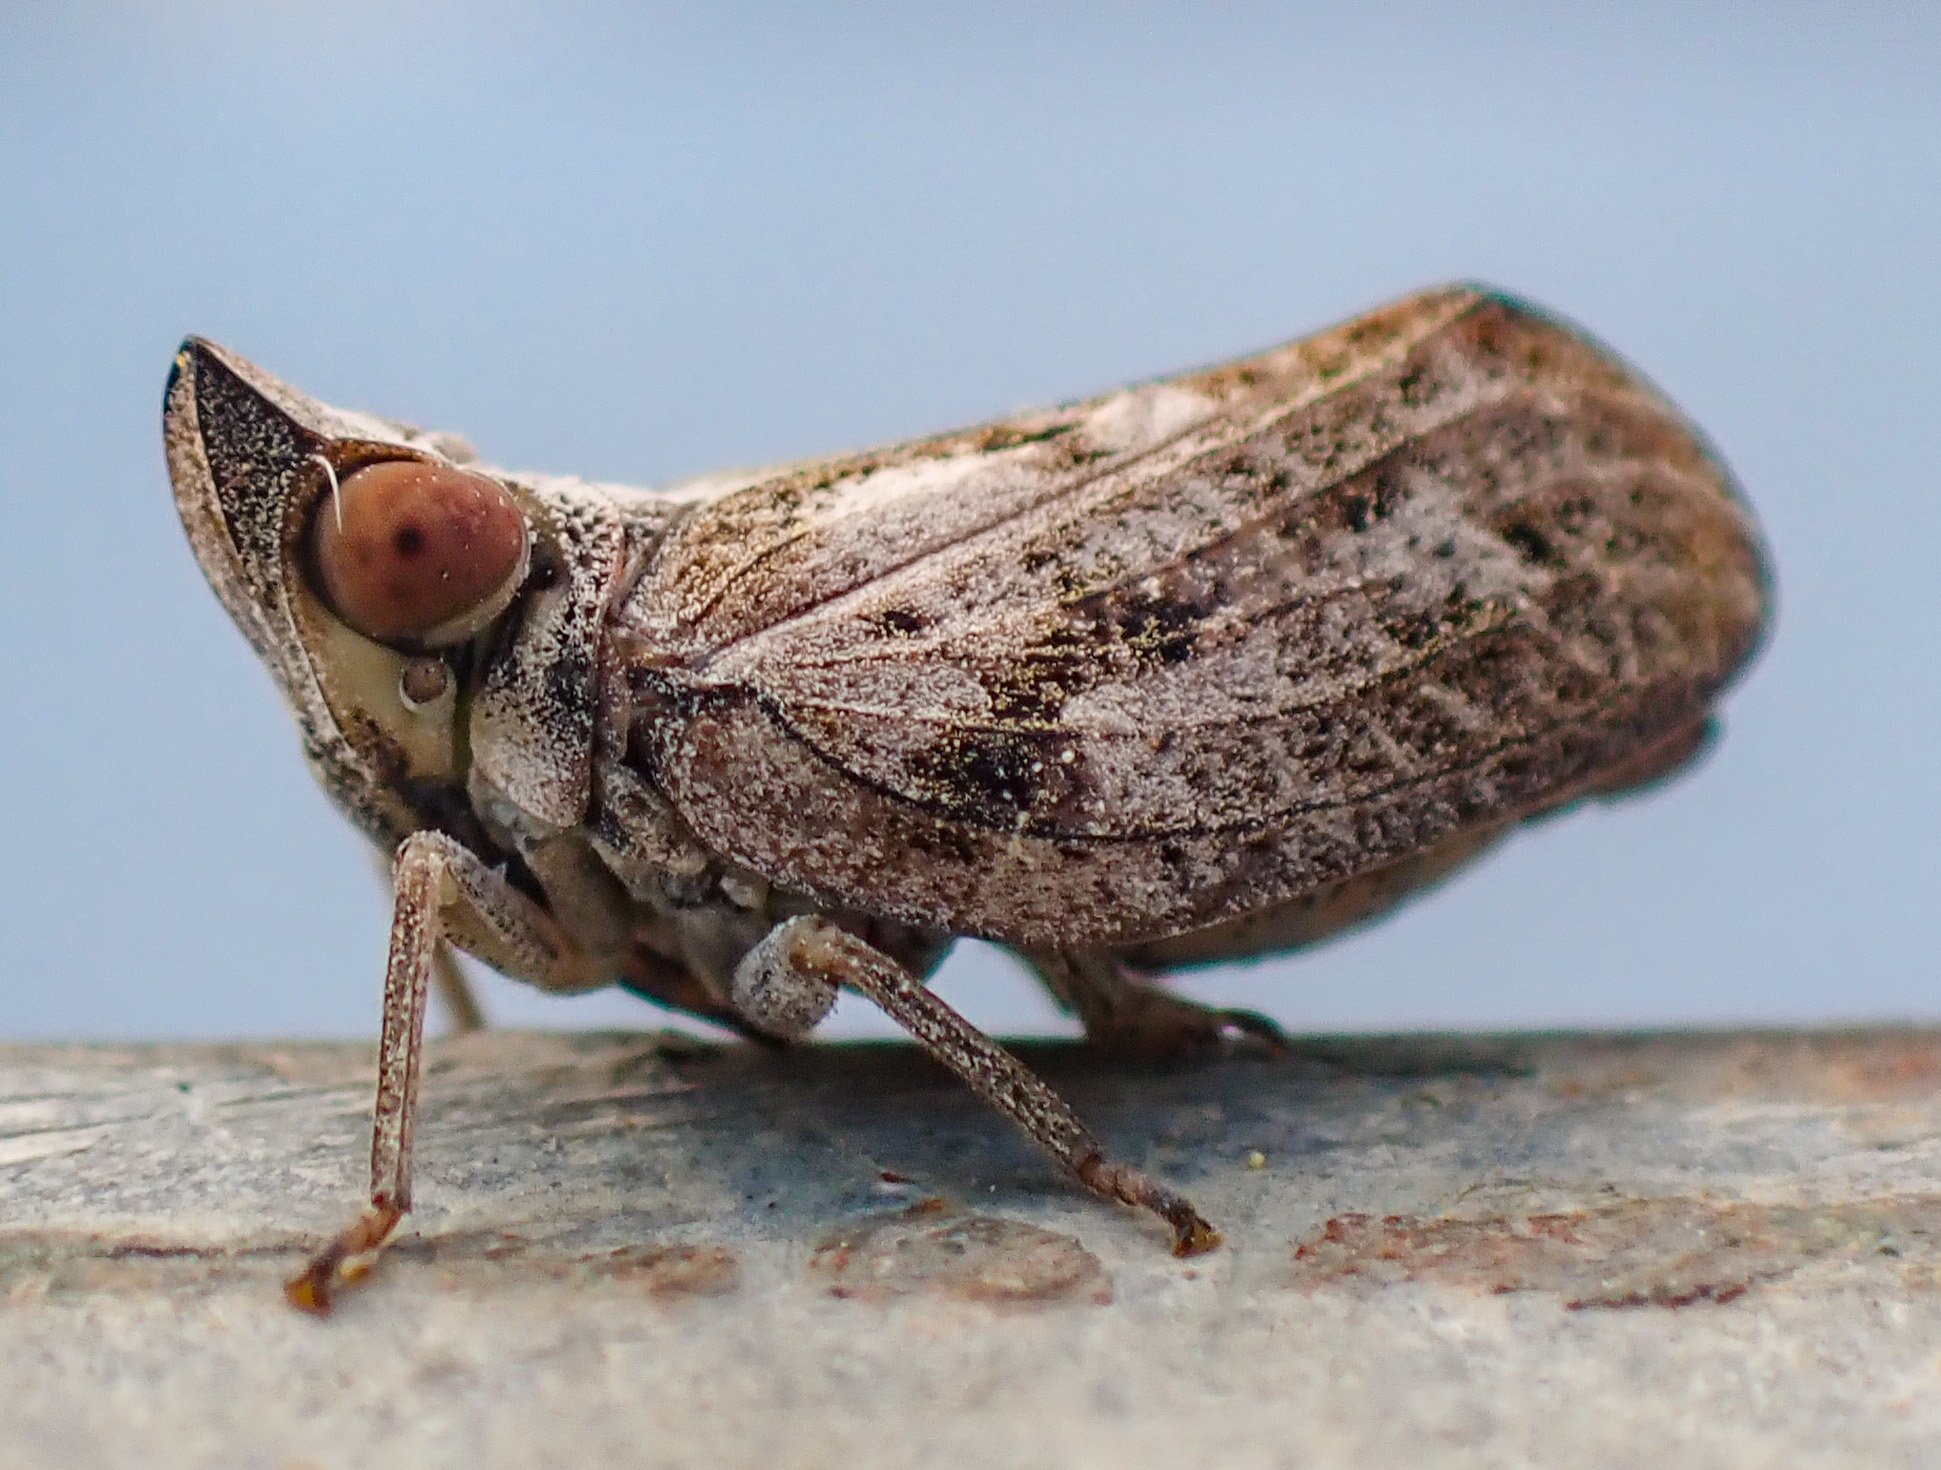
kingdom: Animalia
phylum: Arthropoda
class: Insecta
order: Hemiptera
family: Issidae
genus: Fowlerium
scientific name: Fowlerium acutum
